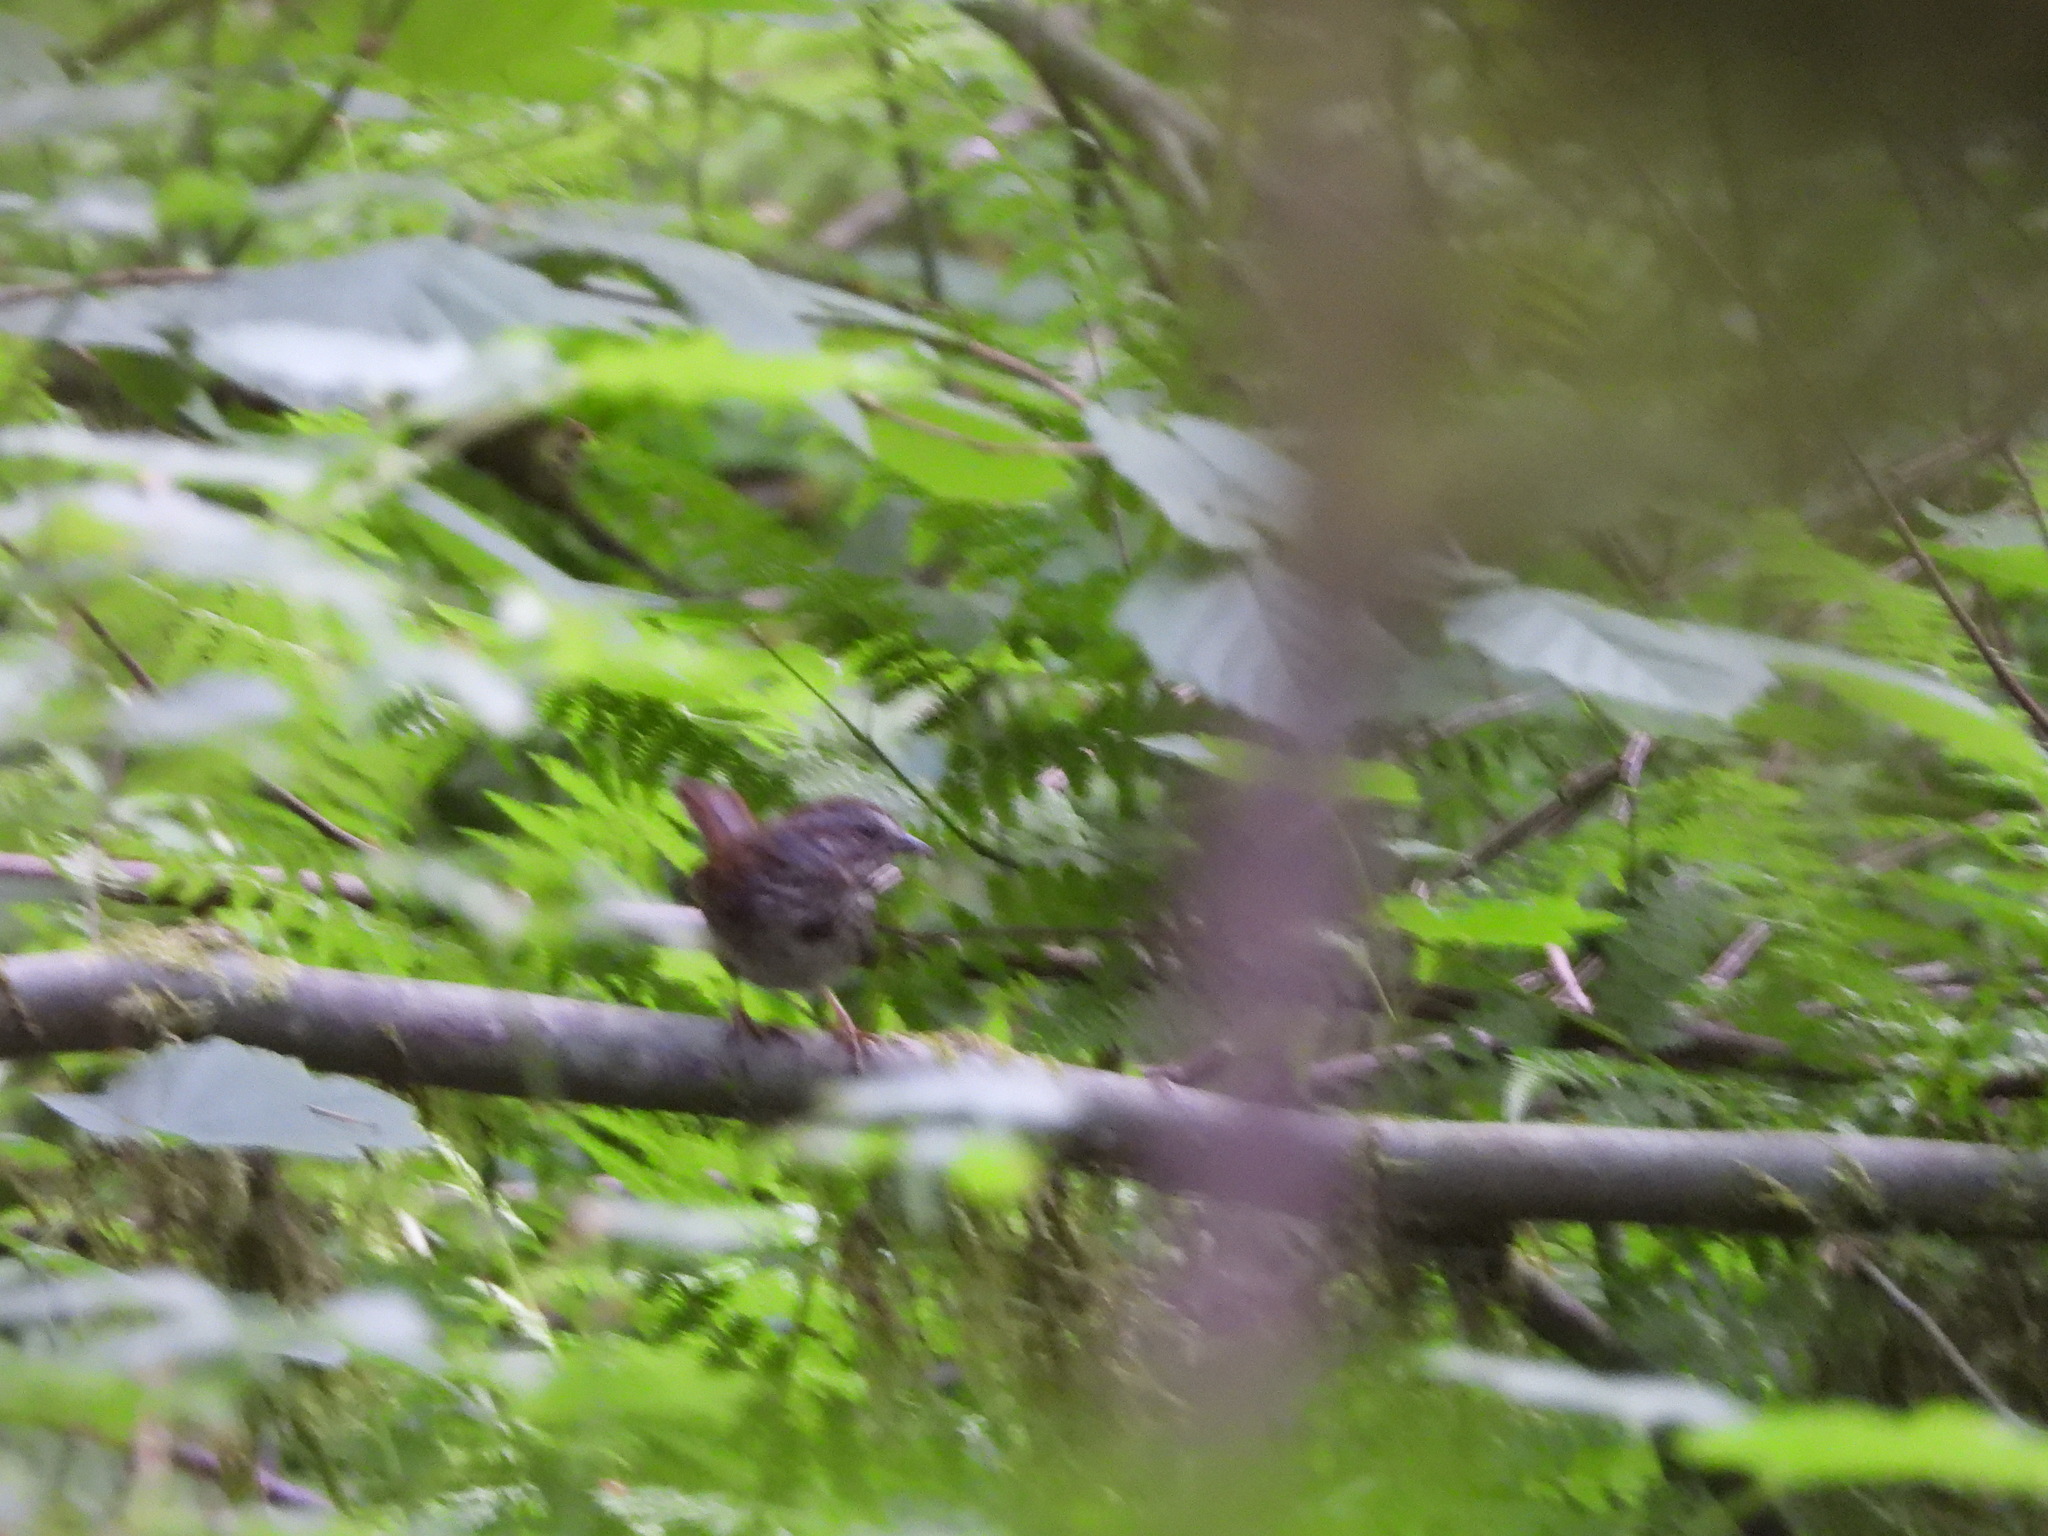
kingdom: Animalia
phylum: Chordata
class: Aves
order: Passeriformes
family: Passerellidae
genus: Melospiza
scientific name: Melospiza melodia
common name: Song sparrow
